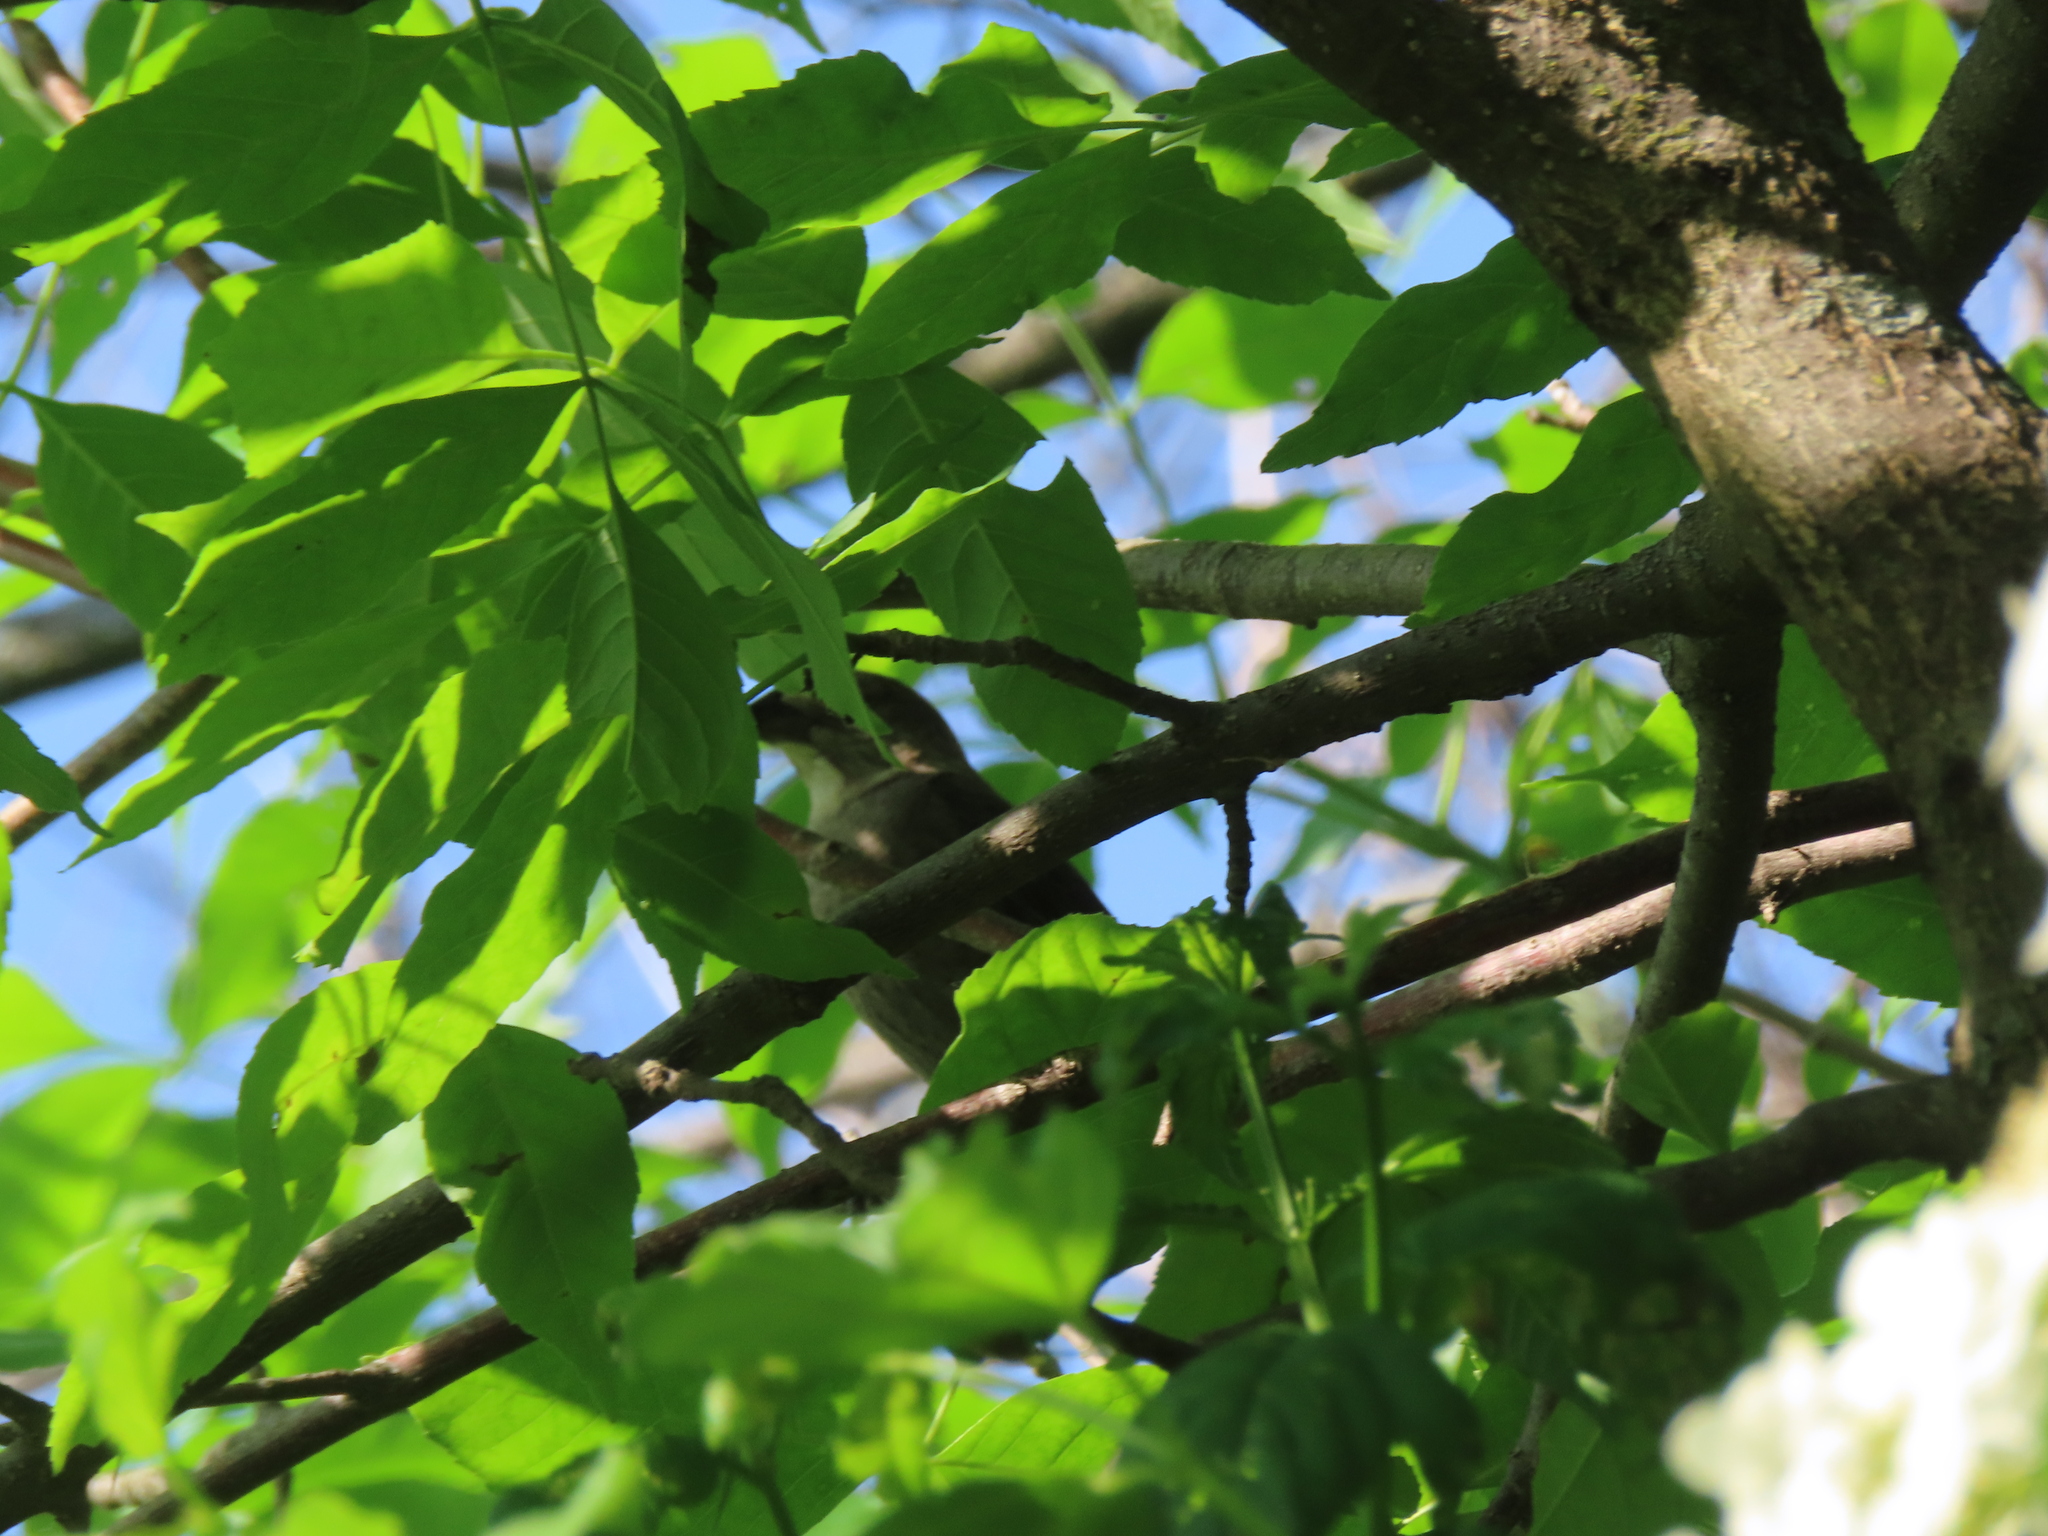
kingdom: Animalia
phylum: Chordata
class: Aves
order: Passeriformes
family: Icteridae
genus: Molothrus
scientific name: Molothrus ater
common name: Brown-headed cowbird
